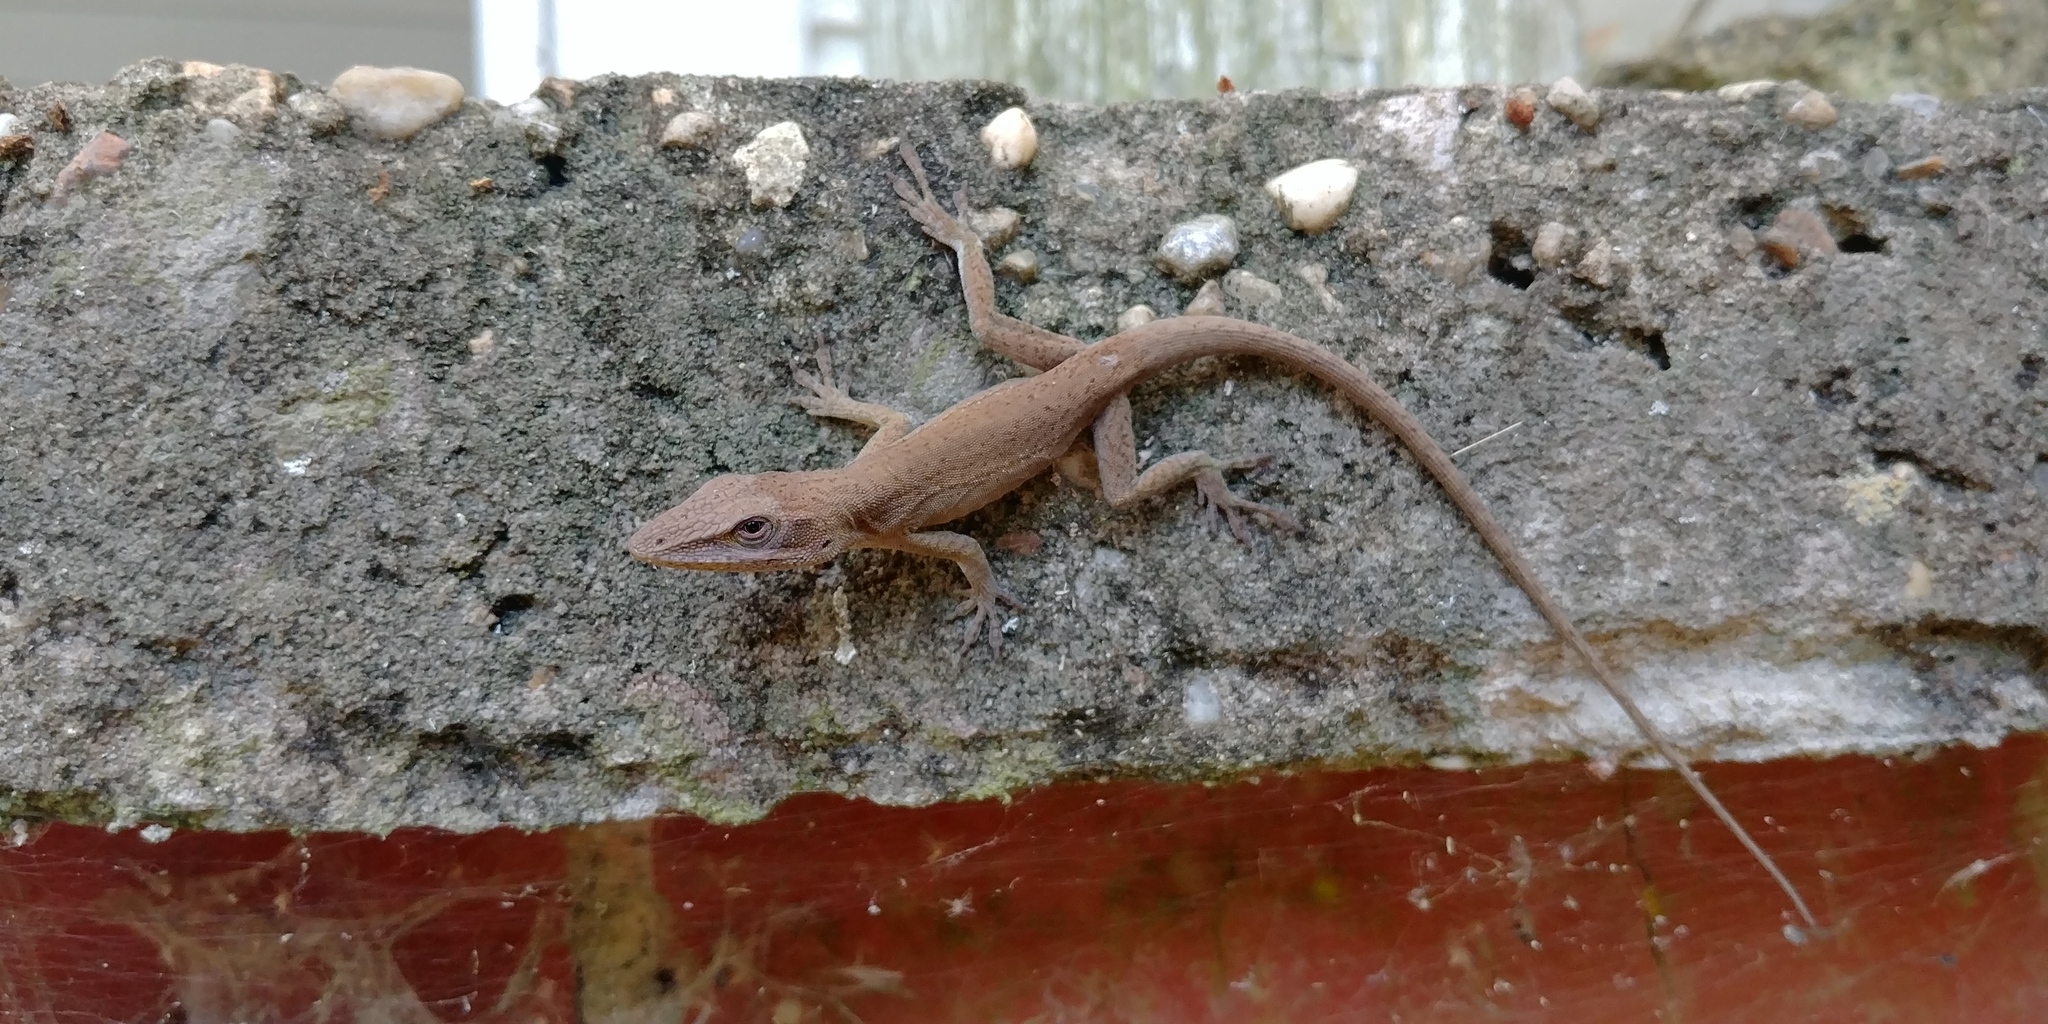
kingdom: Animalia
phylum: Chordata
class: Squamata
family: Dactyloidae
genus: Anolis
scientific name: Anolis carolinensis
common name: Green anole
